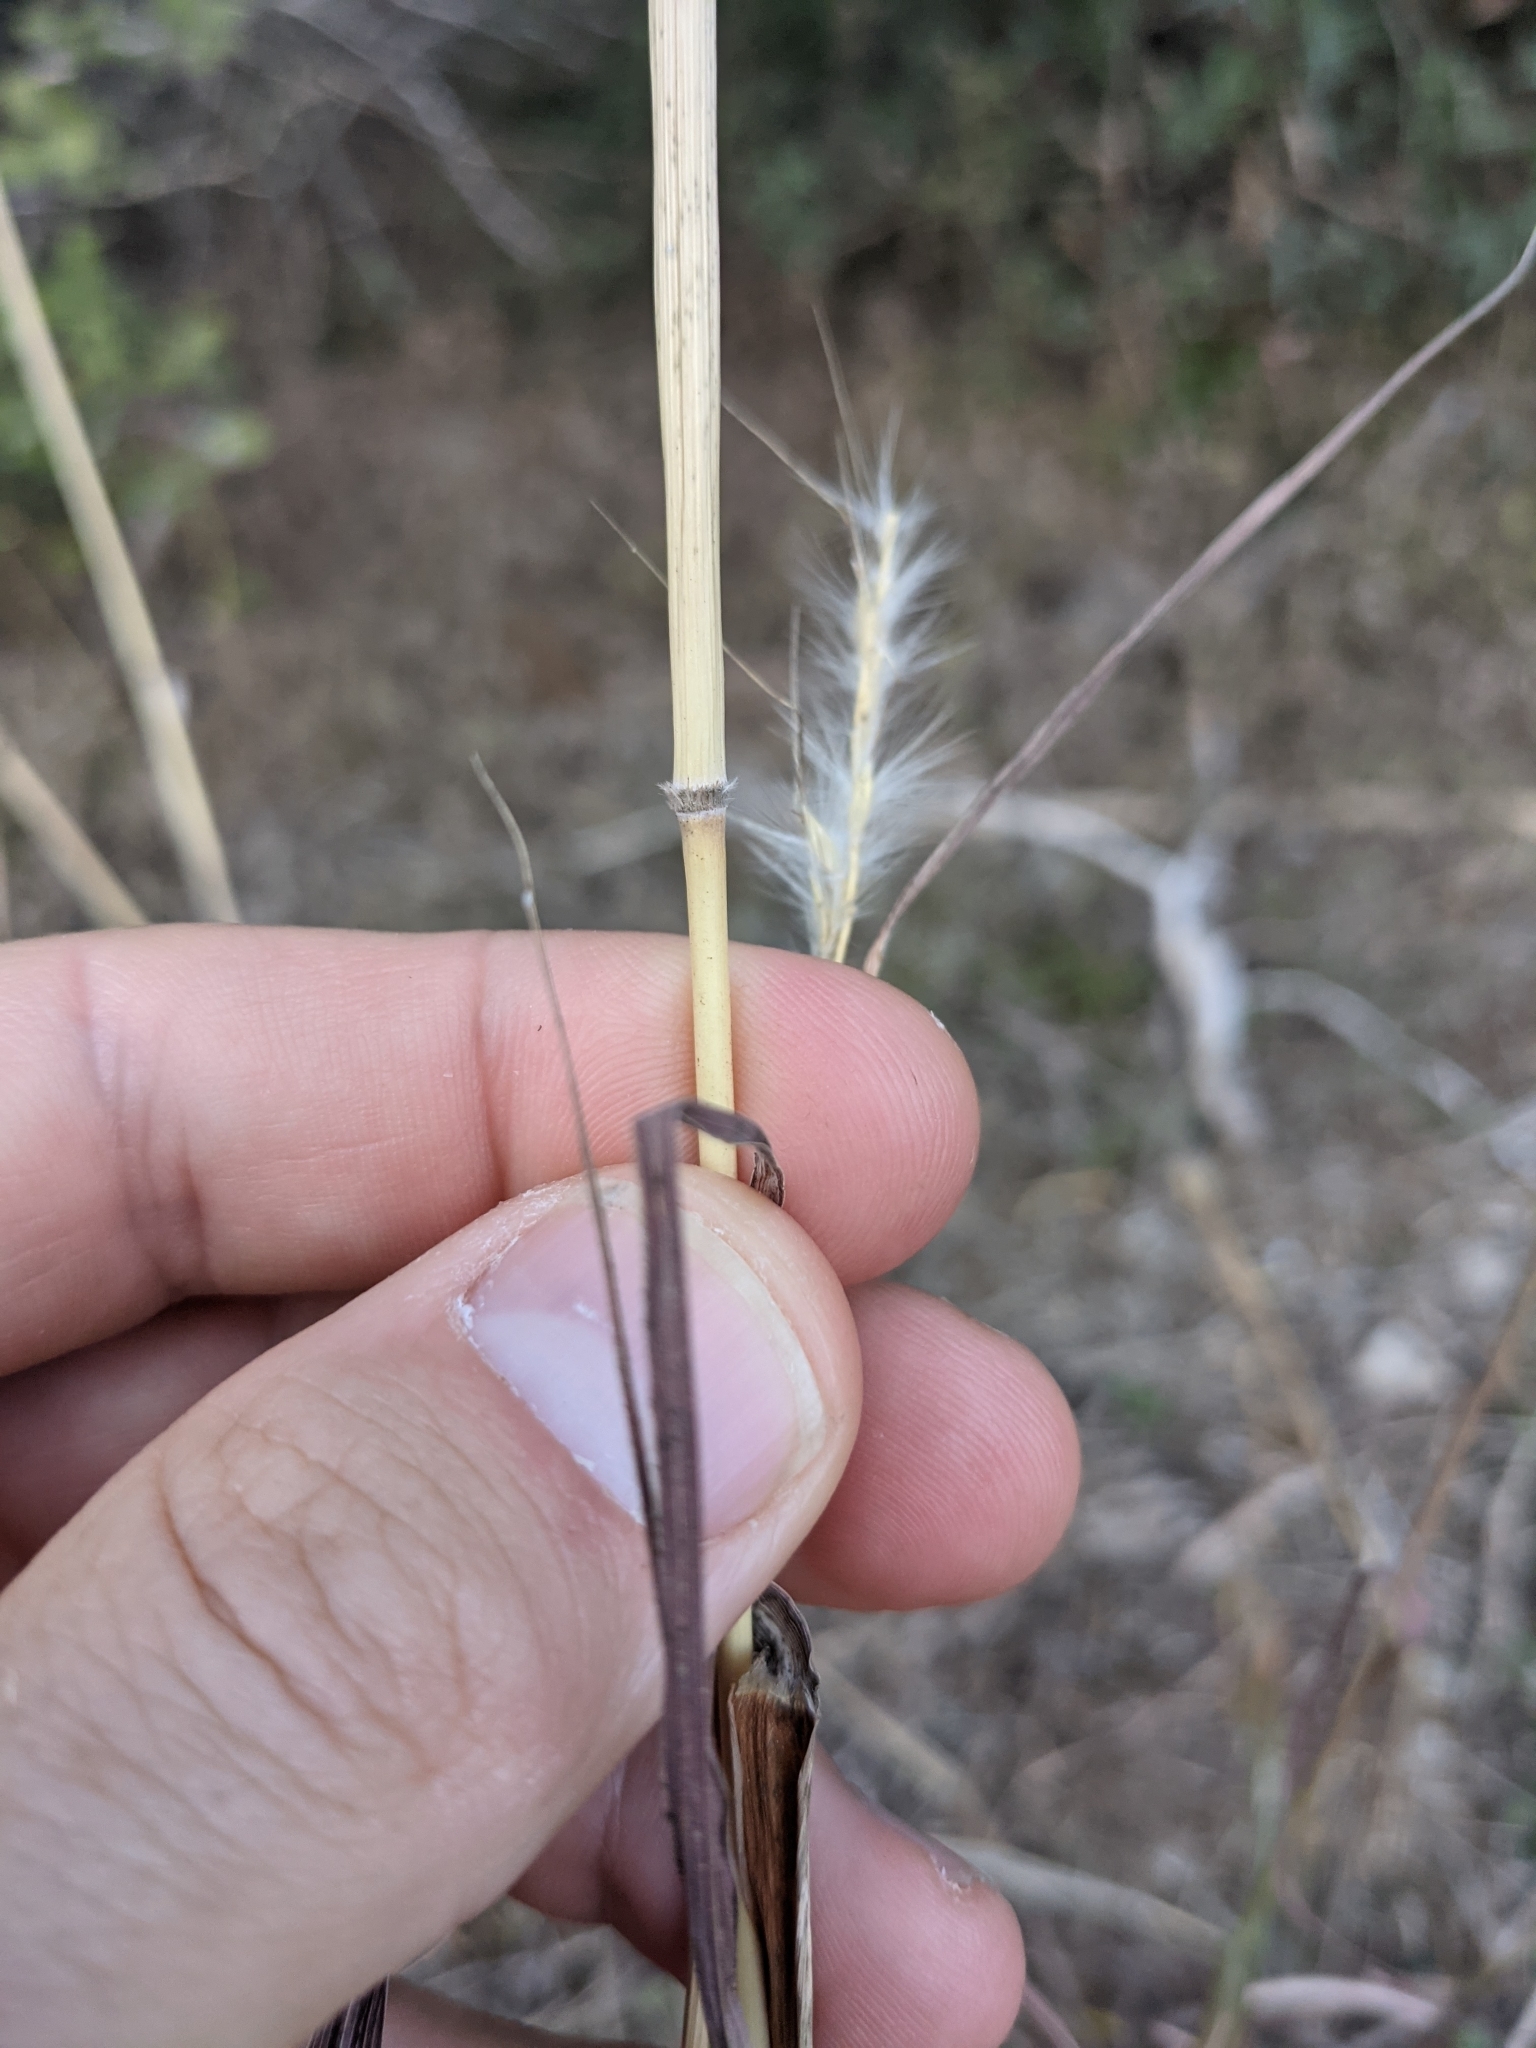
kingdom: Plantae
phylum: Tracheophyta
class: Liliopsida
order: Poales
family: Poaceae
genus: Bothriochloa
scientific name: Bothriochloa barbinodis
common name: Cane bluestem
